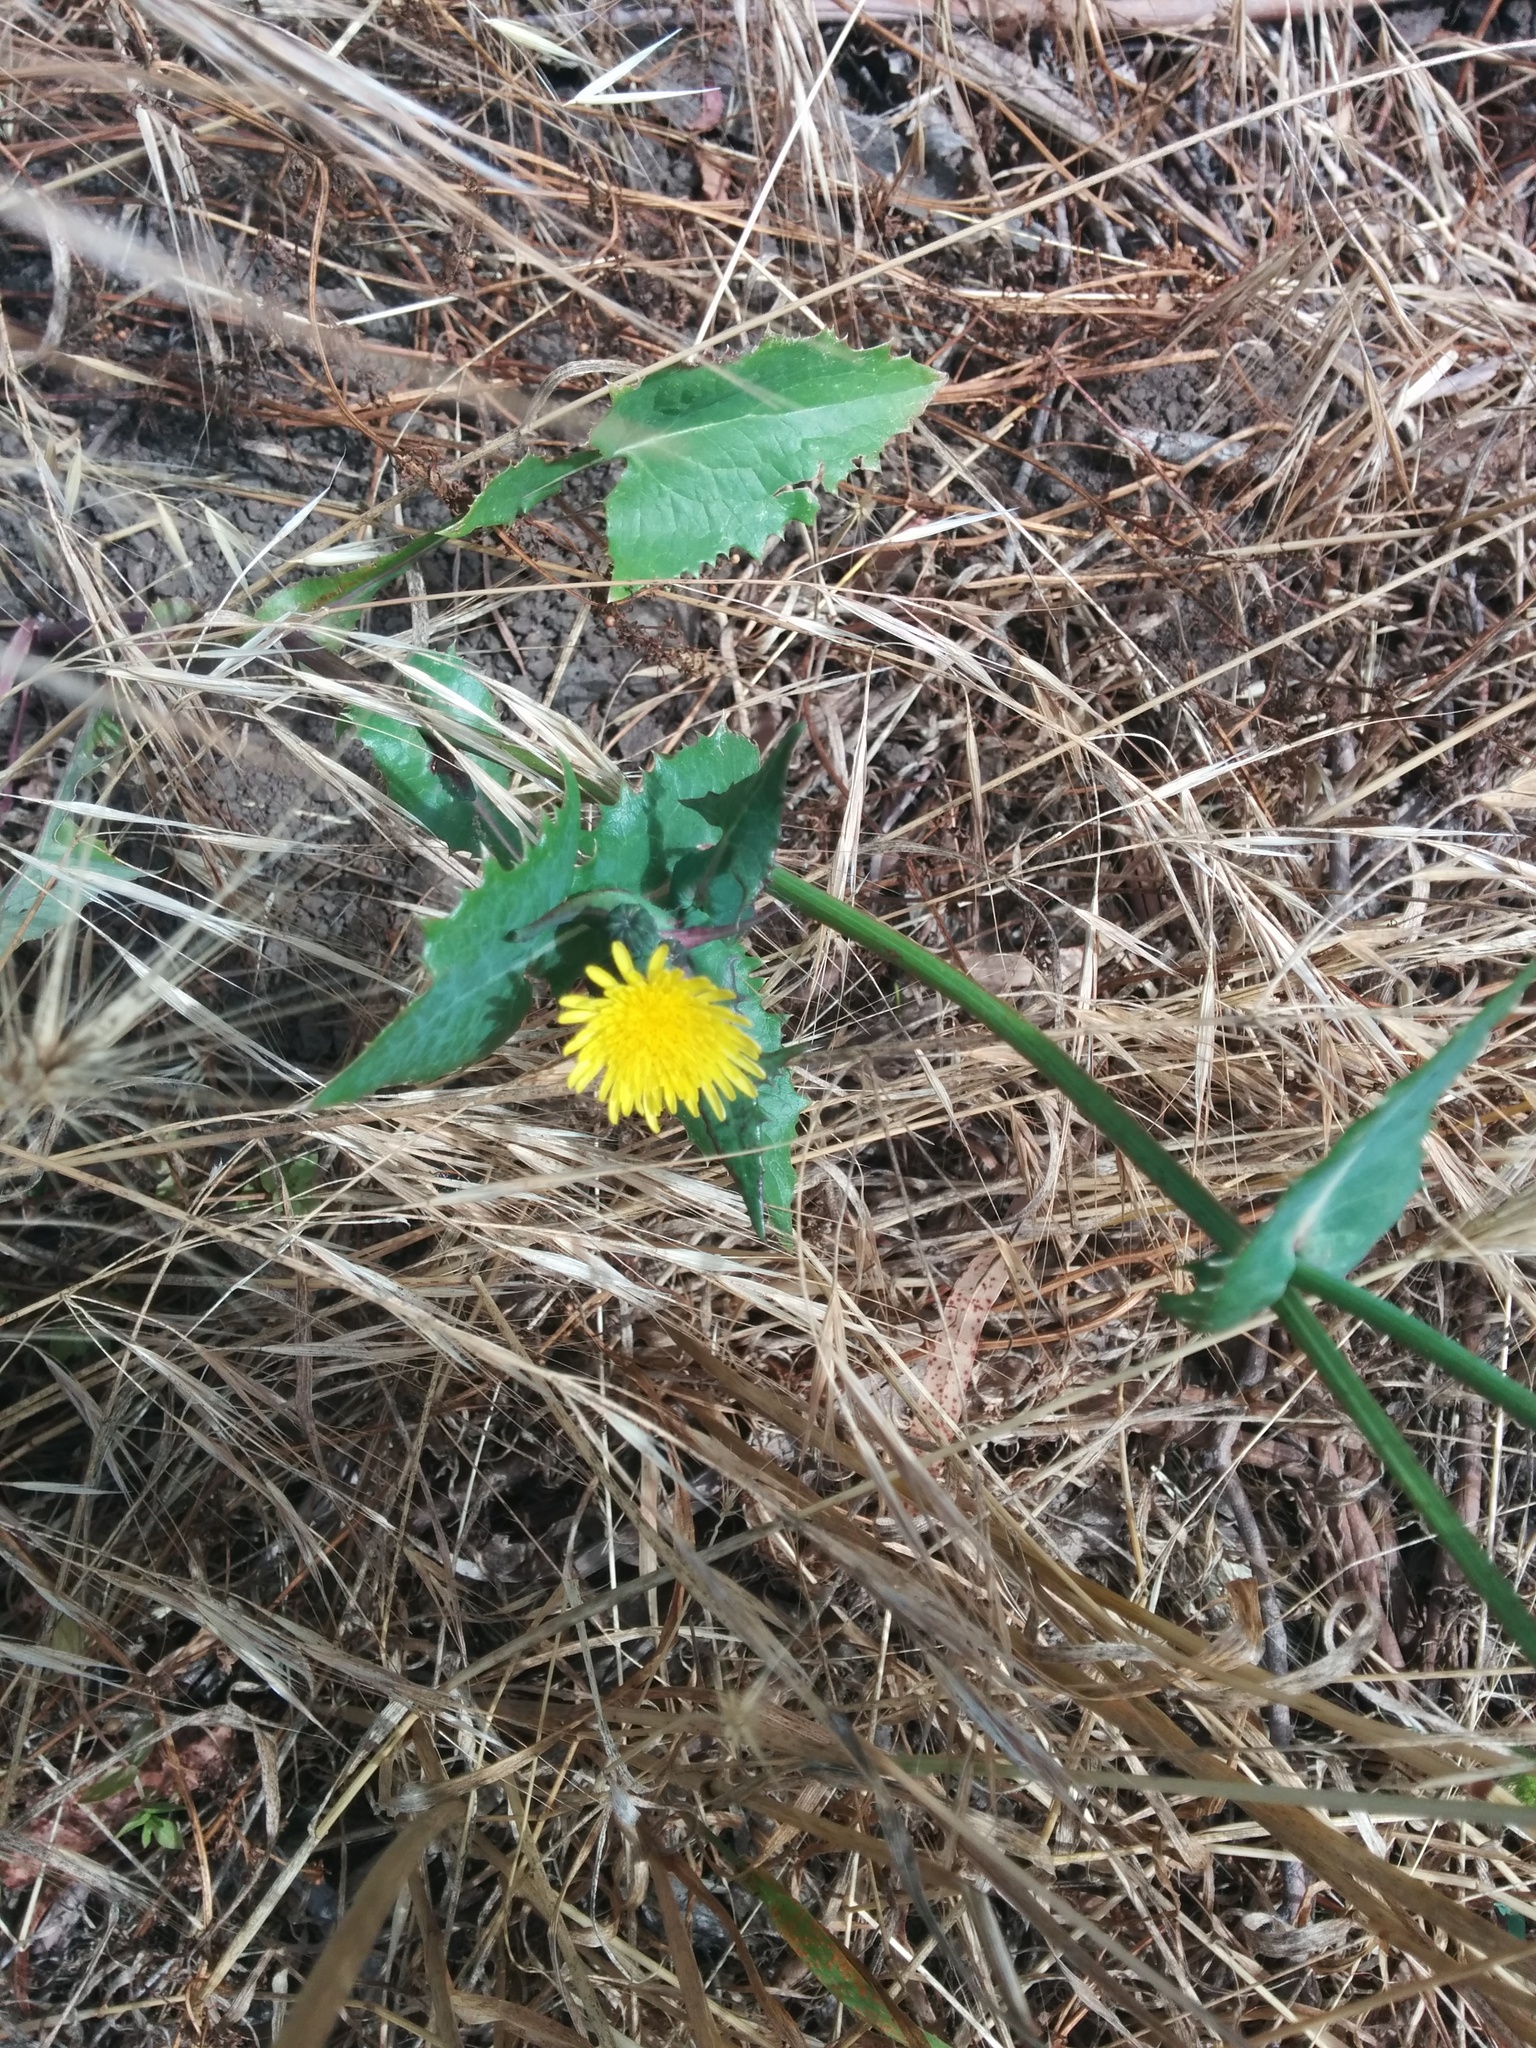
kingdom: Plantae
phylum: Tracheophyta
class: Magnoliopsida
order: Asterales
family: Asteraceae
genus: Sonchus
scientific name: Sonchus oleraceus
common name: Common sowthistle
